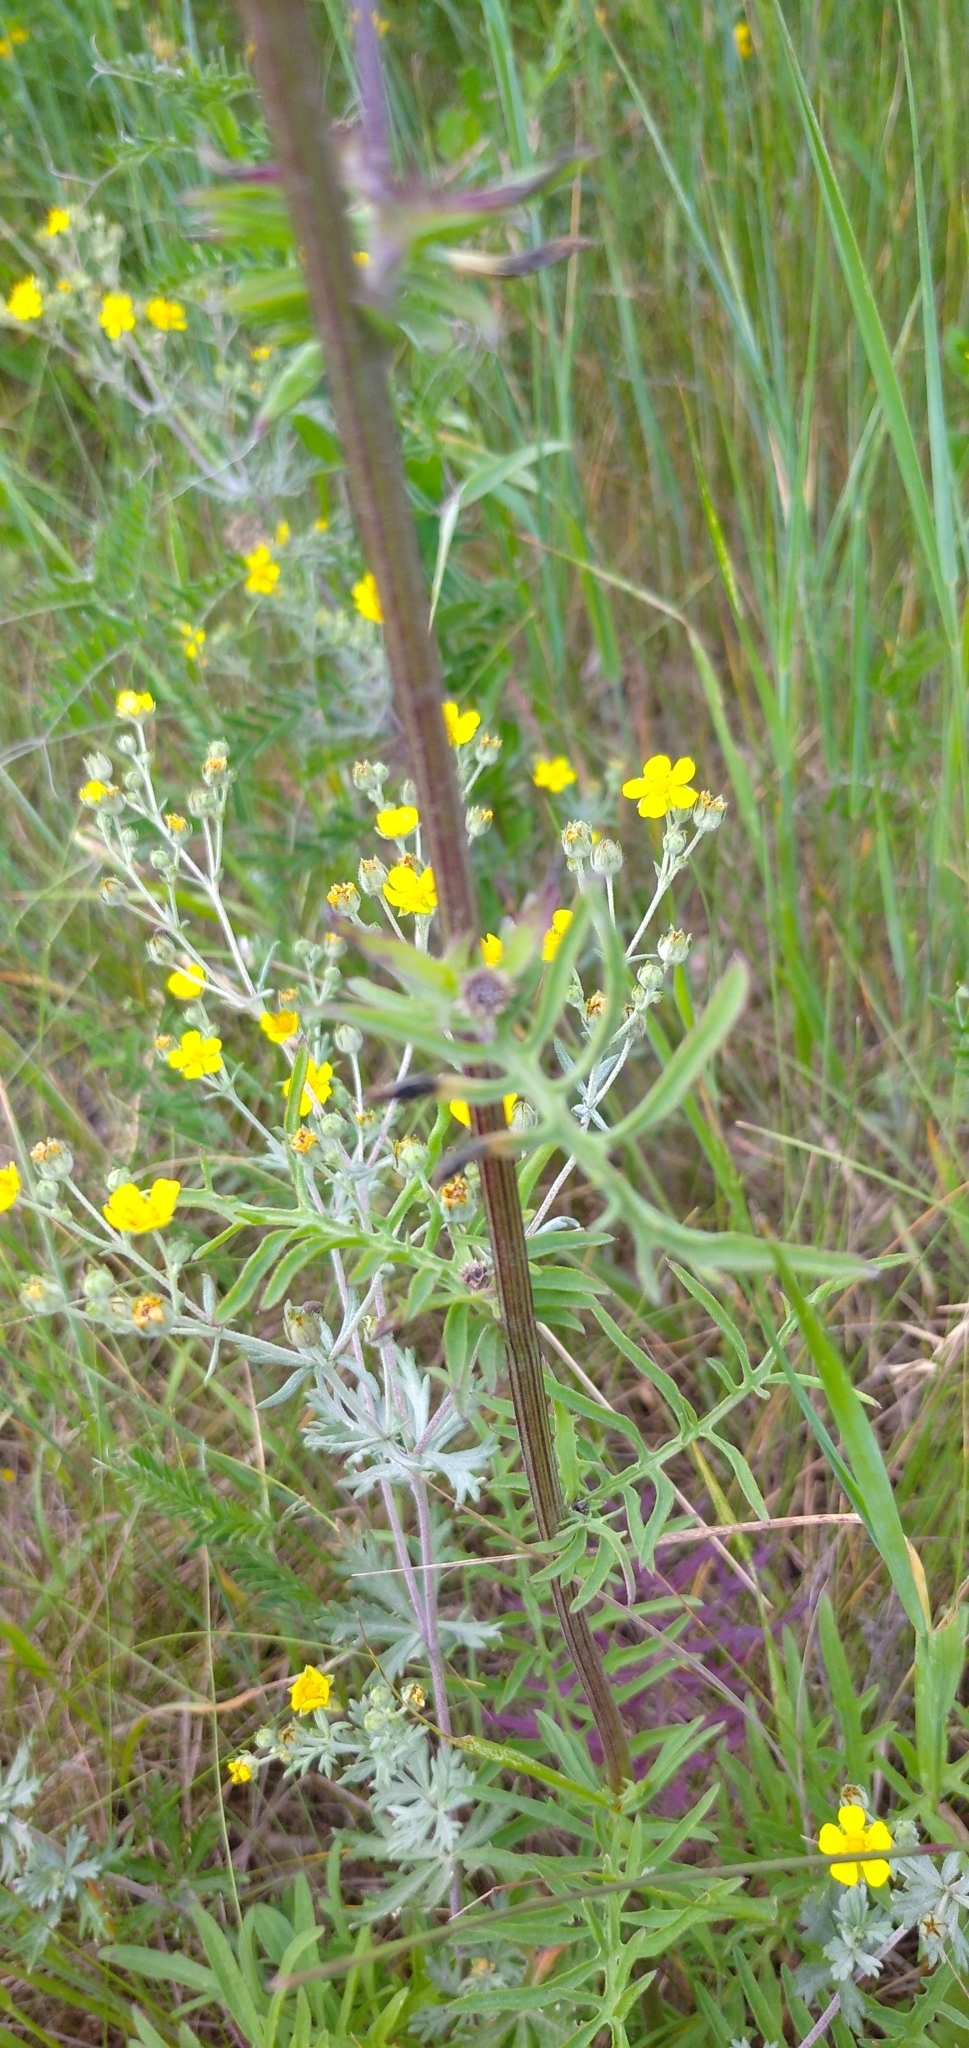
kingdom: Plantae
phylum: Tracheophyta
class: Magnoliopsida
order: Asterales
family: Asteraceae
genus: Centaurea
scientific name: Centaurea scabiosa
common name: Greater knapweed
